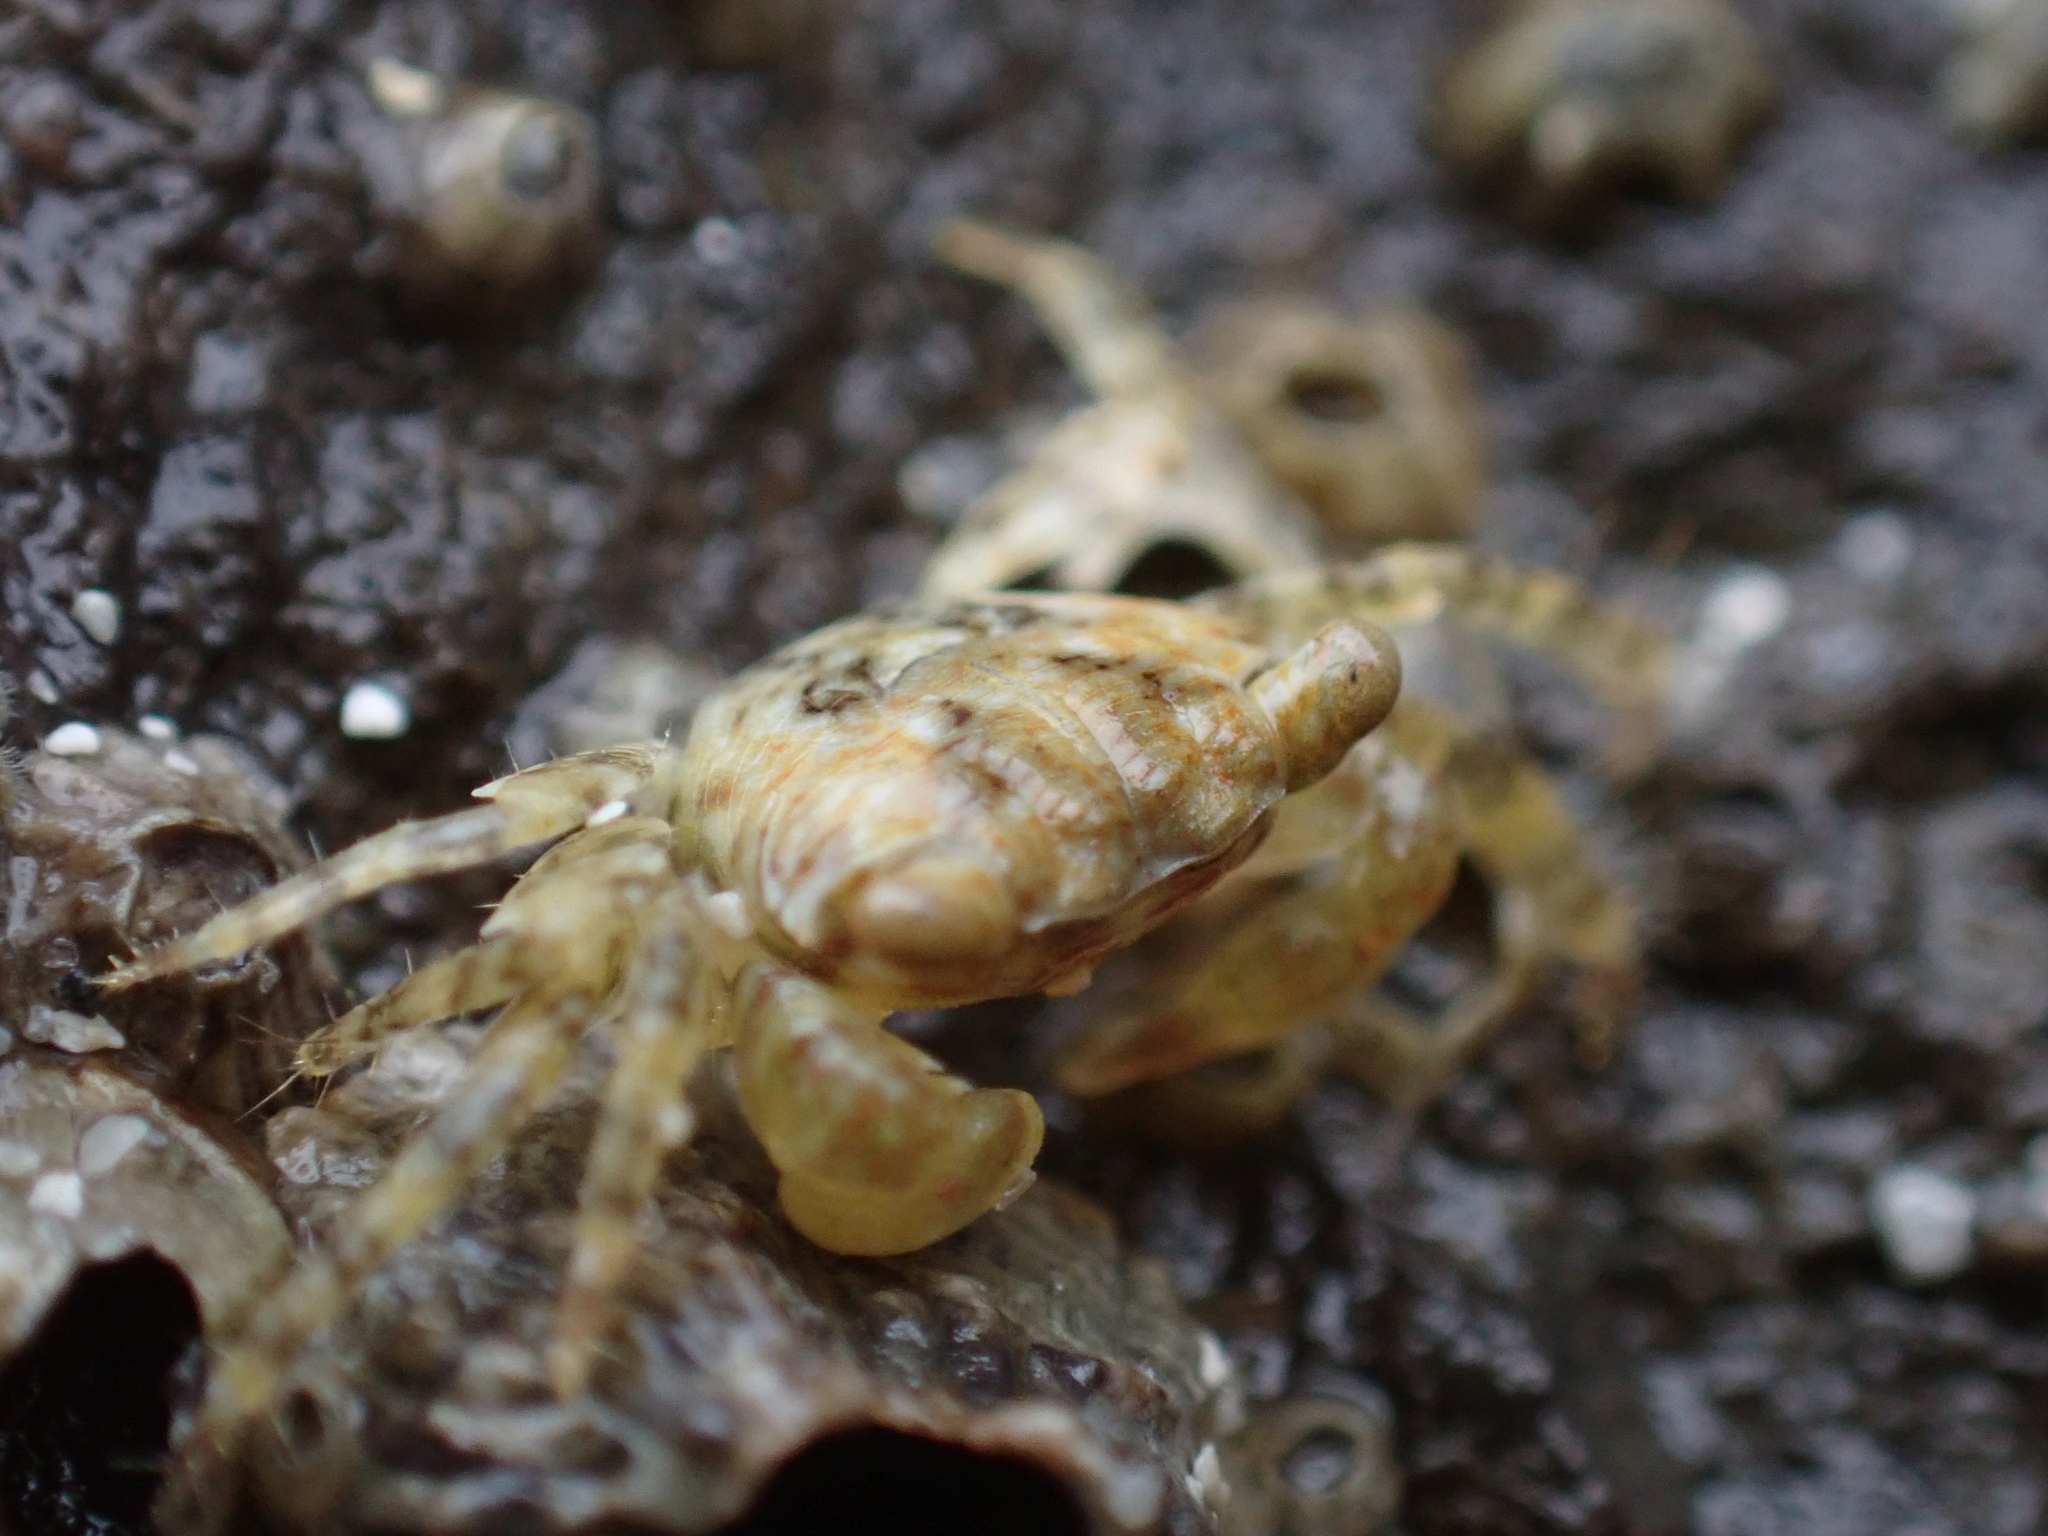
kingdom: Animalia
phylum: Arthropoda
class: Malacostraca
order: Decapoda
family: Grapsidae
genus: Pachygrapsus
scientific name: Pachygrapsus transversus
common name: Mottled shore crab
